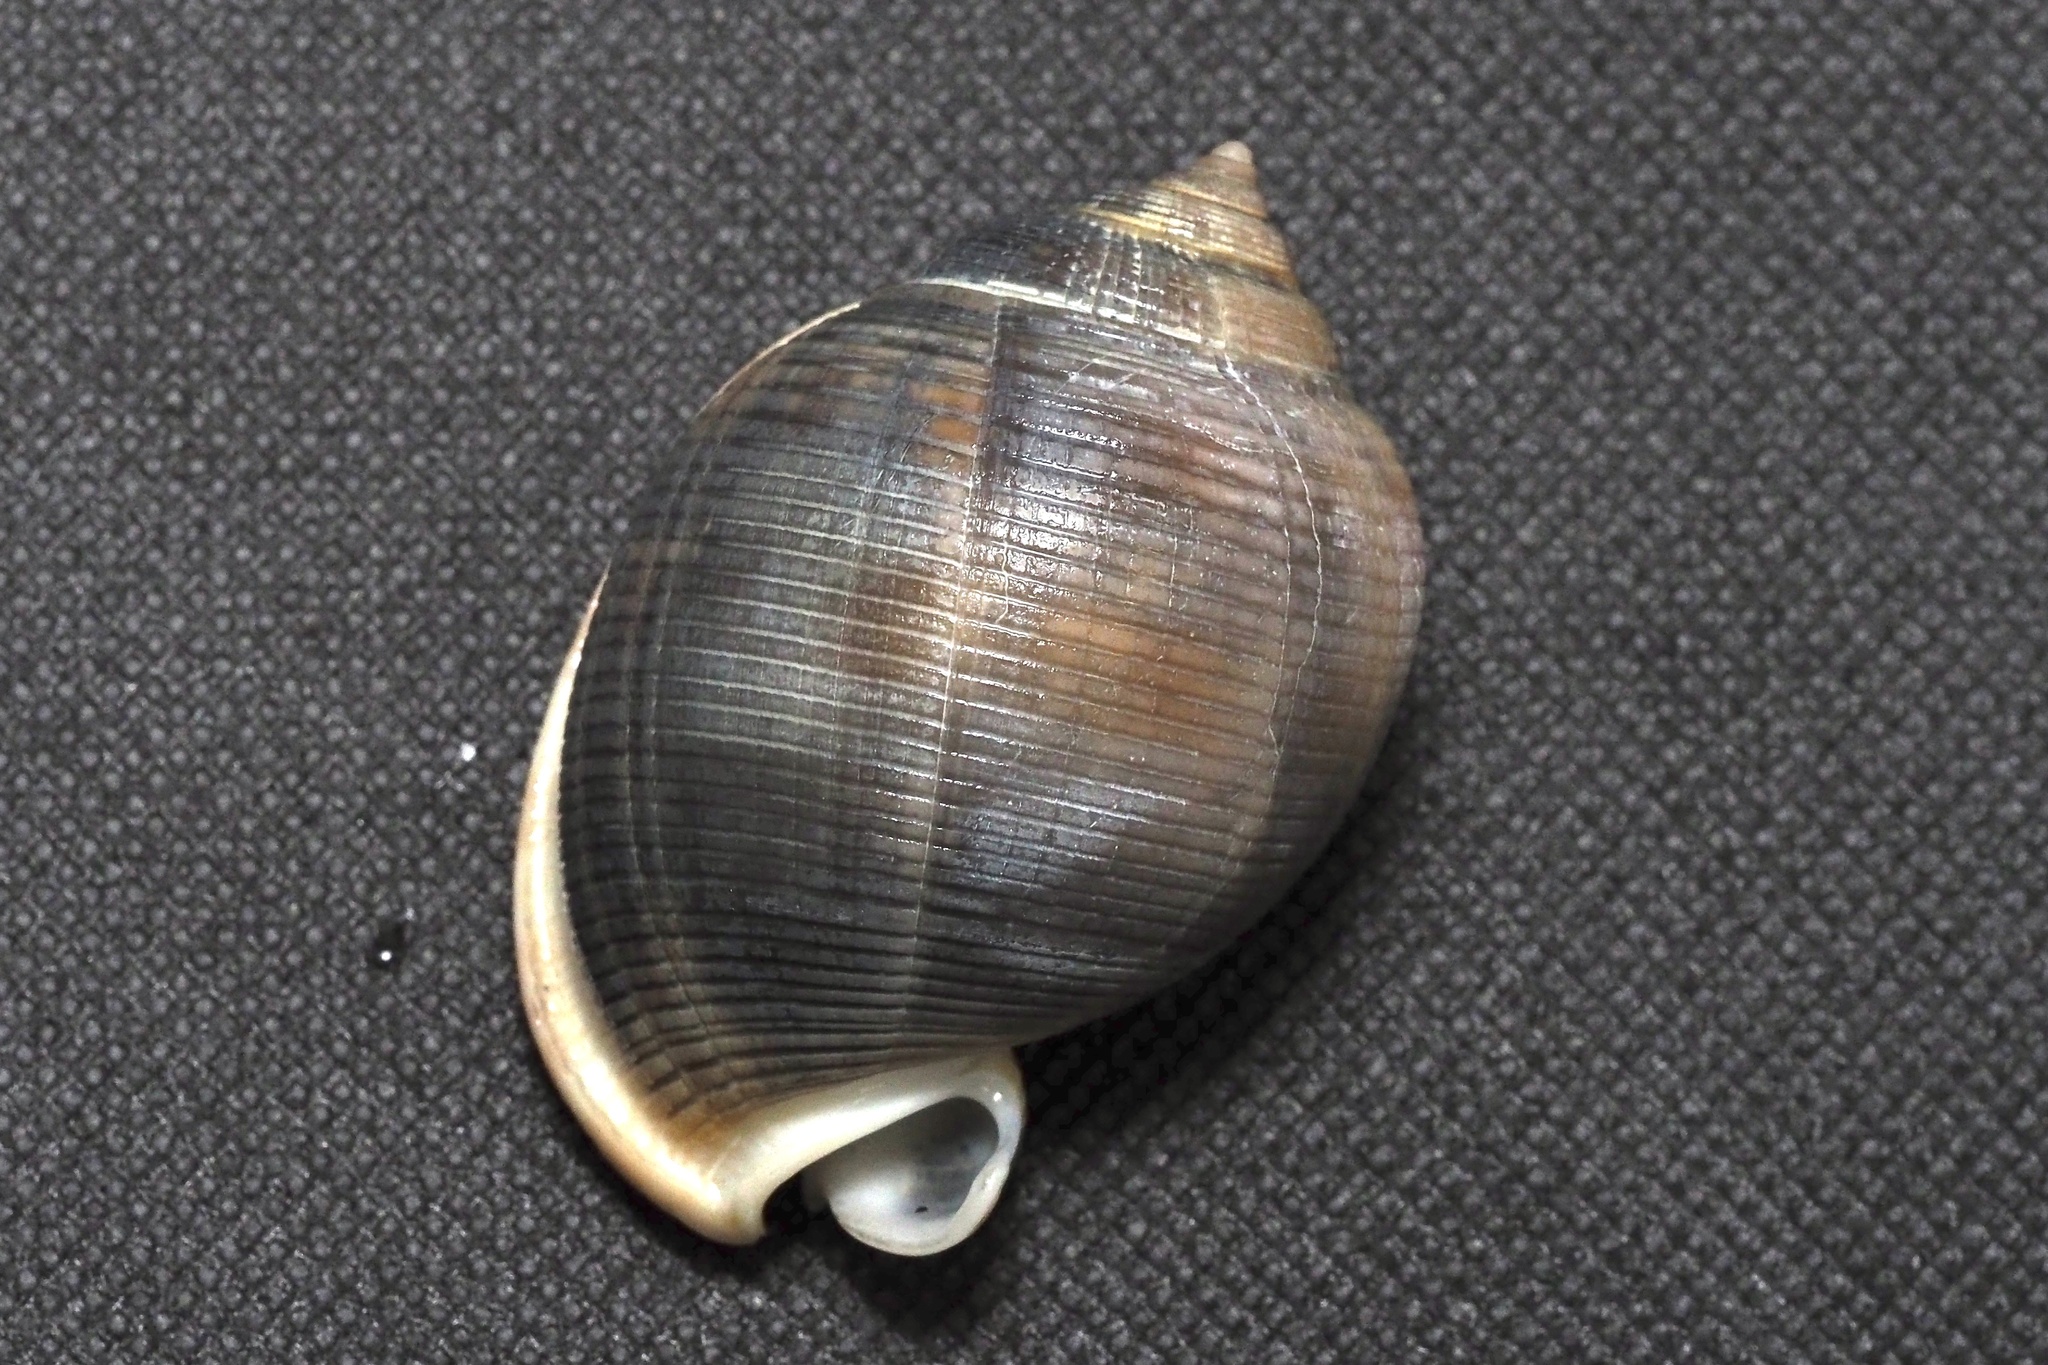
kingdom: Animalia
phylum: Mollusca
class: Gastropoda
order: Littorinimorpha
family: Cassidae
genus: Semicassis
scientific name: Semicassis bisulcata
